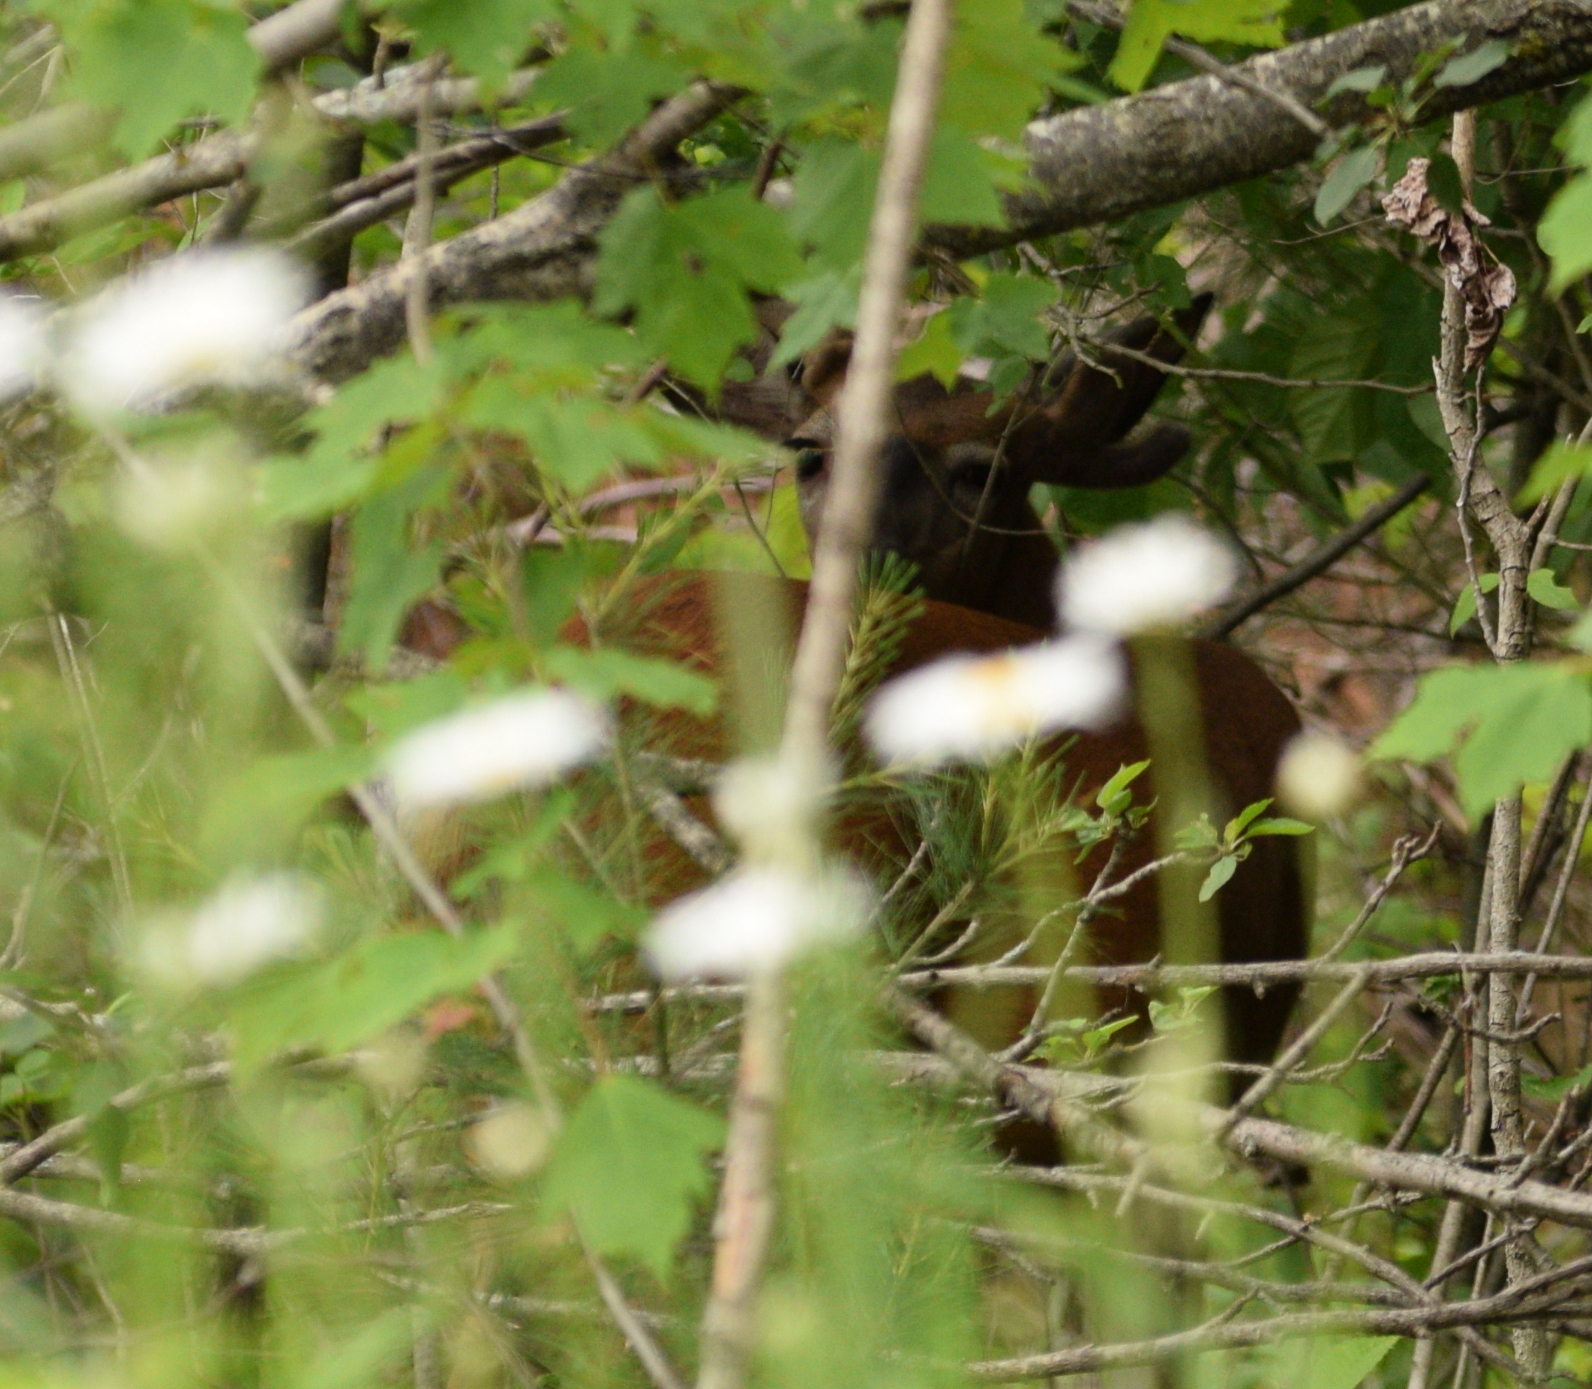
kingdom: Animalia
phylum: Chordata
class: Mammalia
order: Artiodactyla
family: Cervidae
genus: Odocoileus
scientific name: Odocoileus virginianus
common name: White-tailed deer
